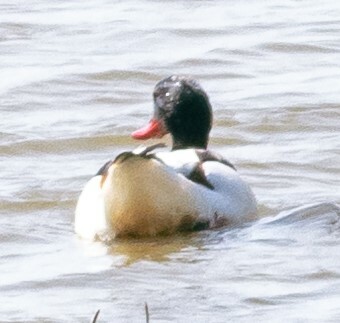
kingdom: Animalia
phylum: Chordata
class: Aves
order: Anseriformes
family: Anatidae
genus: Tadorna
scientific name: Tadorna tadorna
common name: Common shelduck
